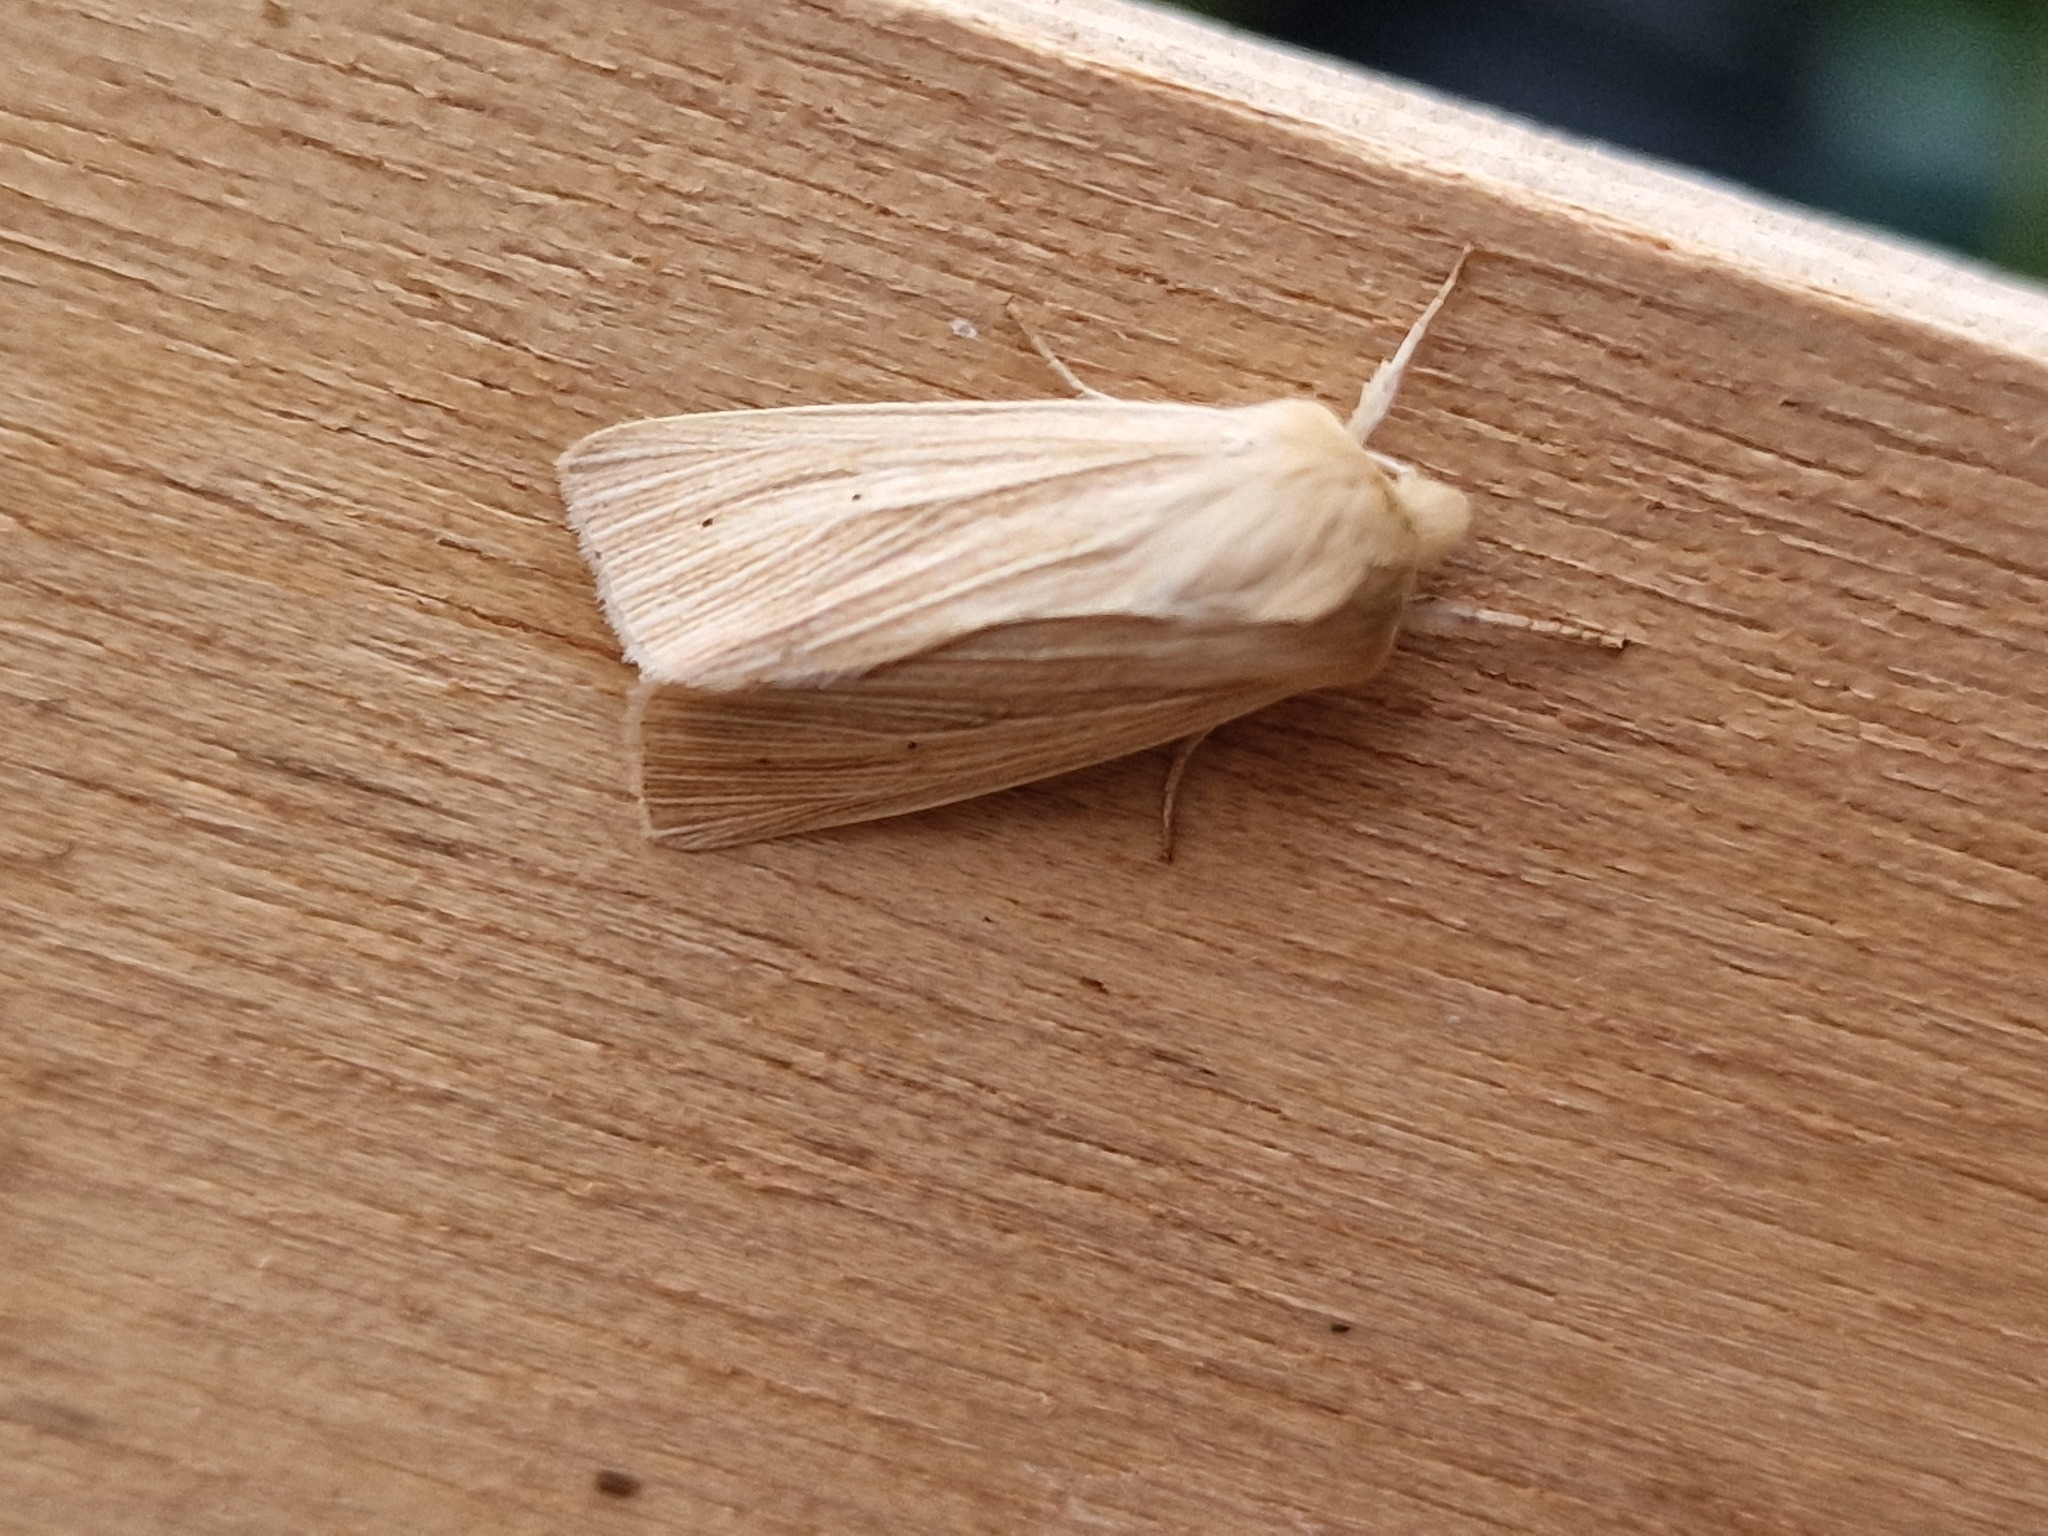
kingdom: Animalia
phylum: Arthropoda
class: Insecta
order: Lepidoptera
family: Noctuidae
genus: Mythimna
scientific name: Mythimna pallens
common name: Common wainscot
